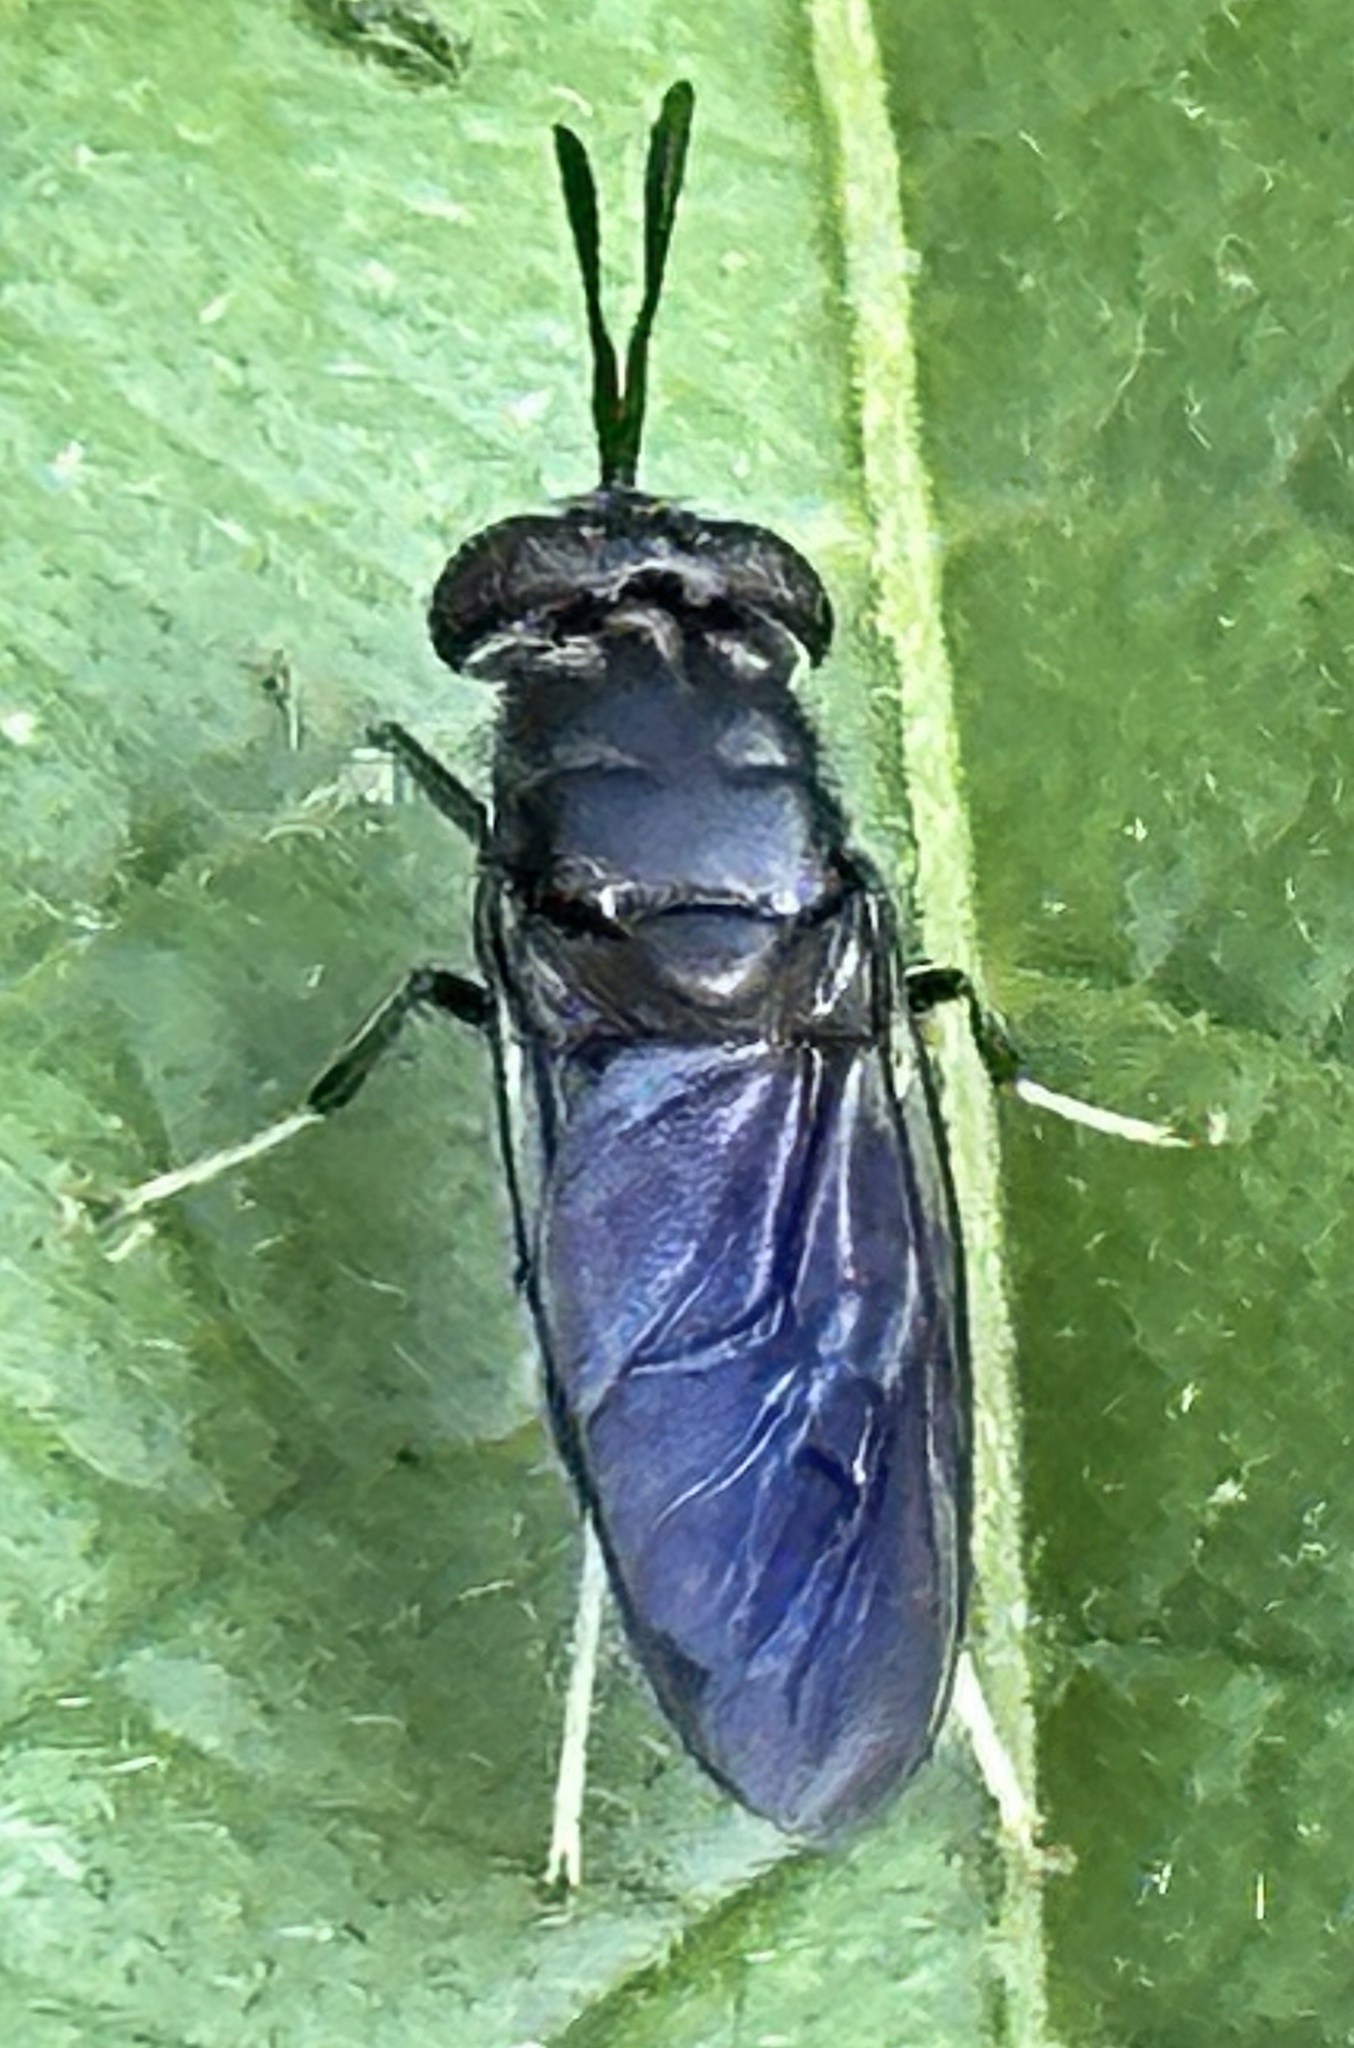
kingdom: Animalia
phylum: Arthropoda
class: Insecta
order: Diptera
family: Stratiomyidae
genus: Hermetia
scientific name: Hermetia illucens
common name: Black soldier fly
